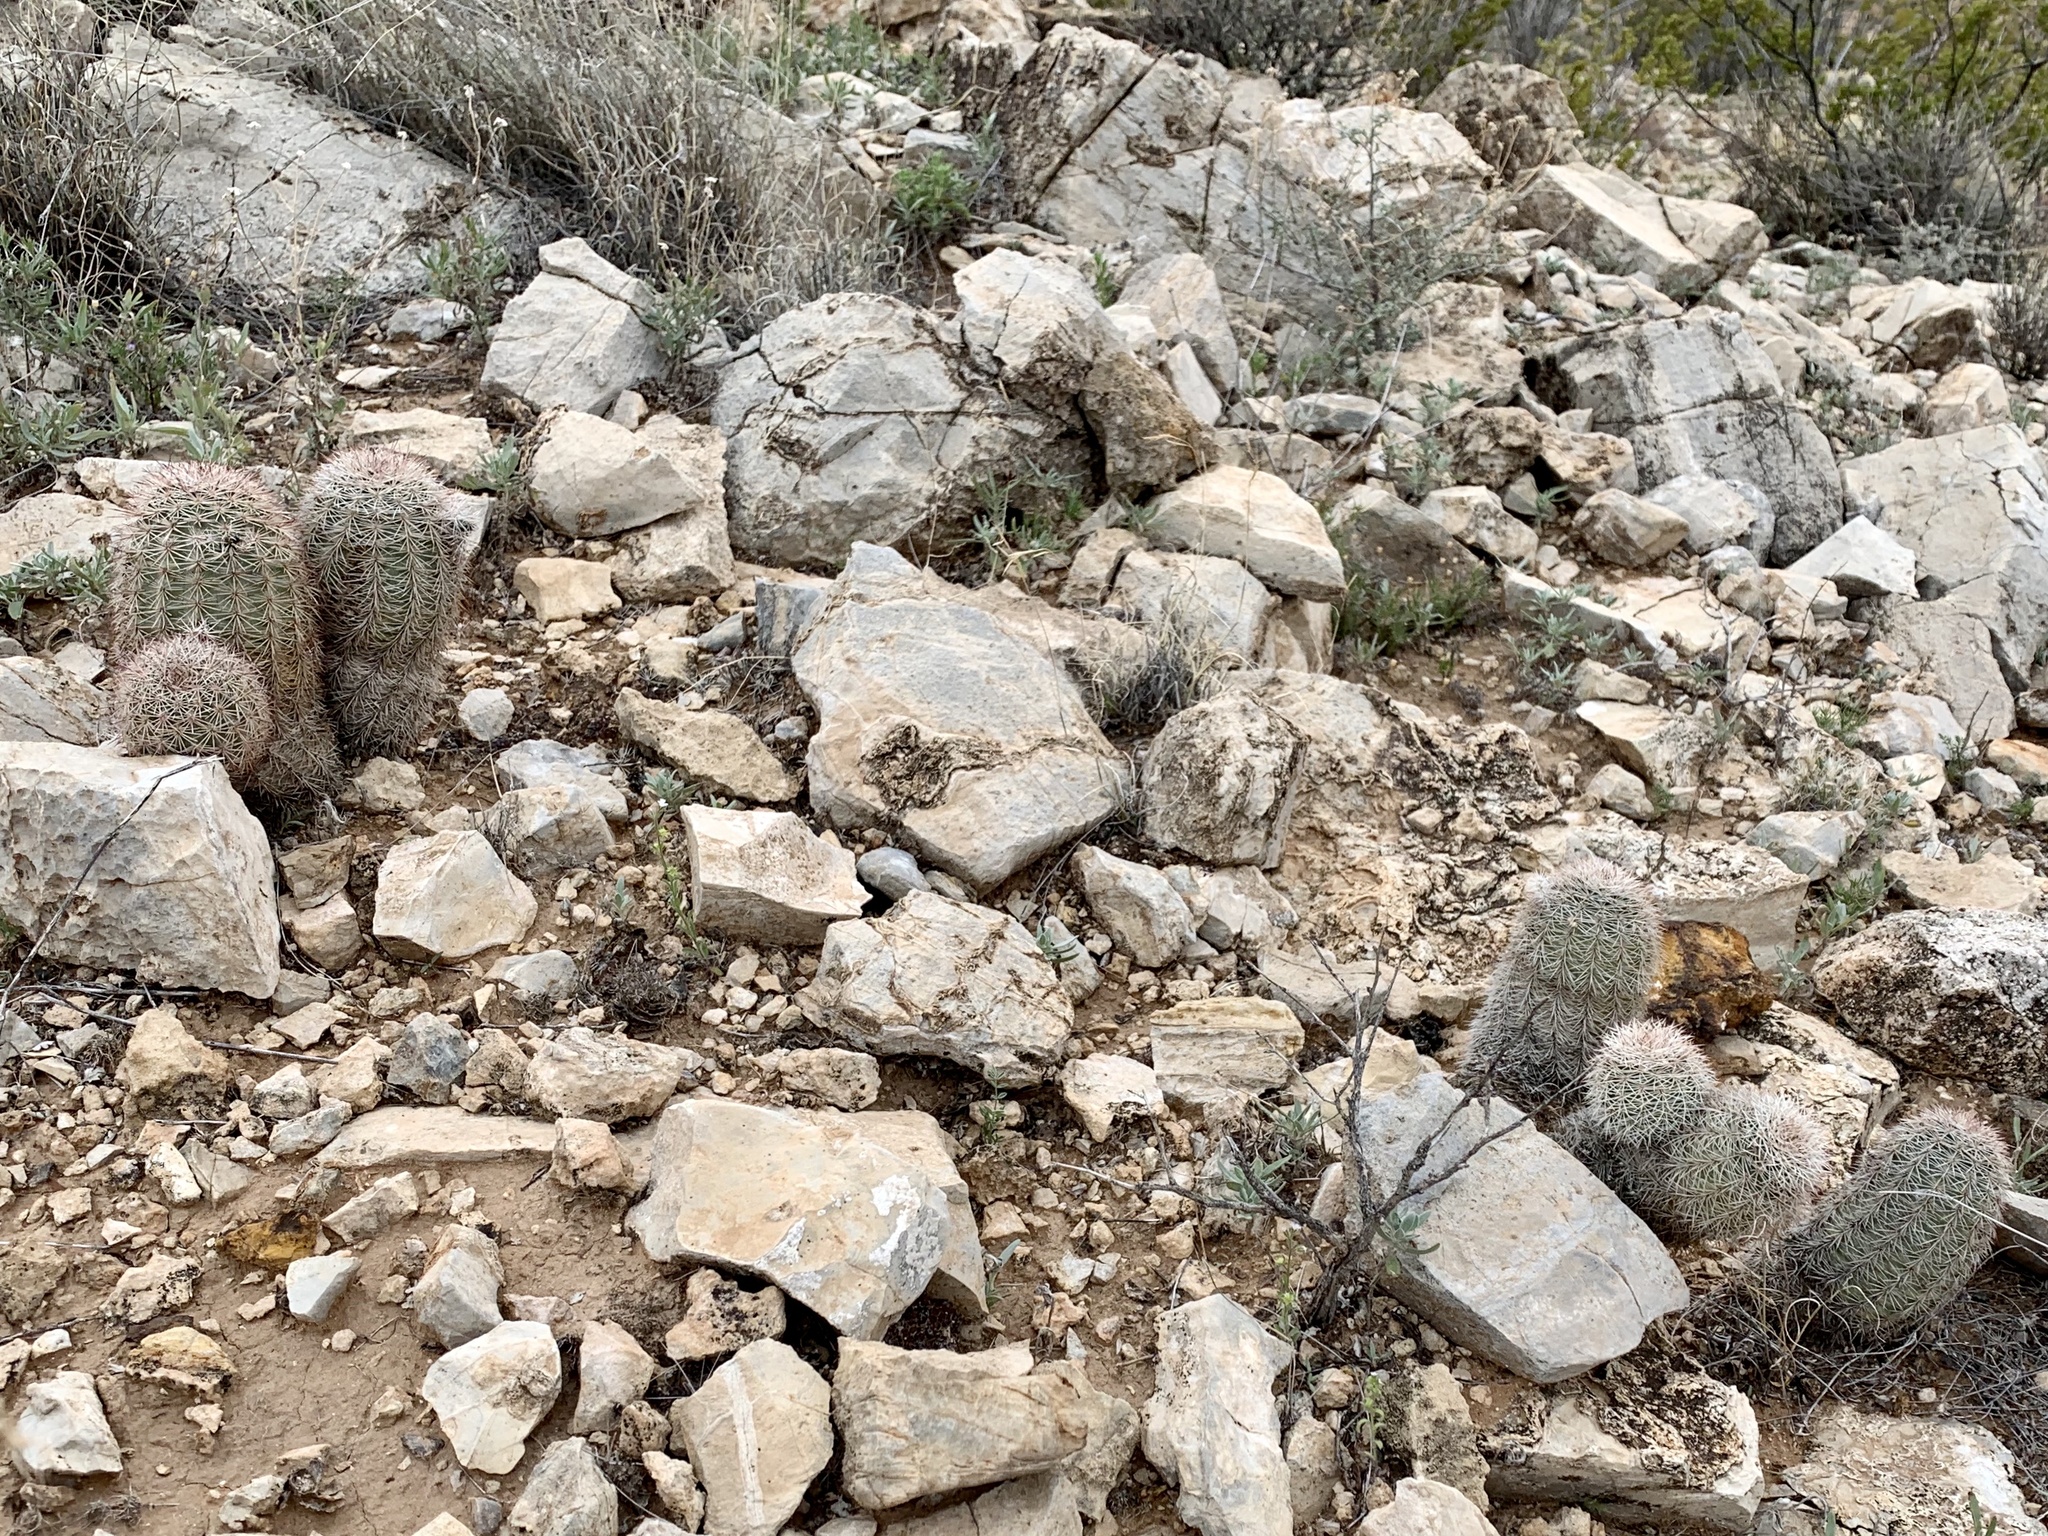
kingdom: Plantae
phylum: Tracheophyta
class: Magnoliopsida
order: Caryophyllales
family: Cactaceae
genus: Echinocereus
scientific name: Echinocereus dasyacanthus
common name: Spiny hedgehog cactus
